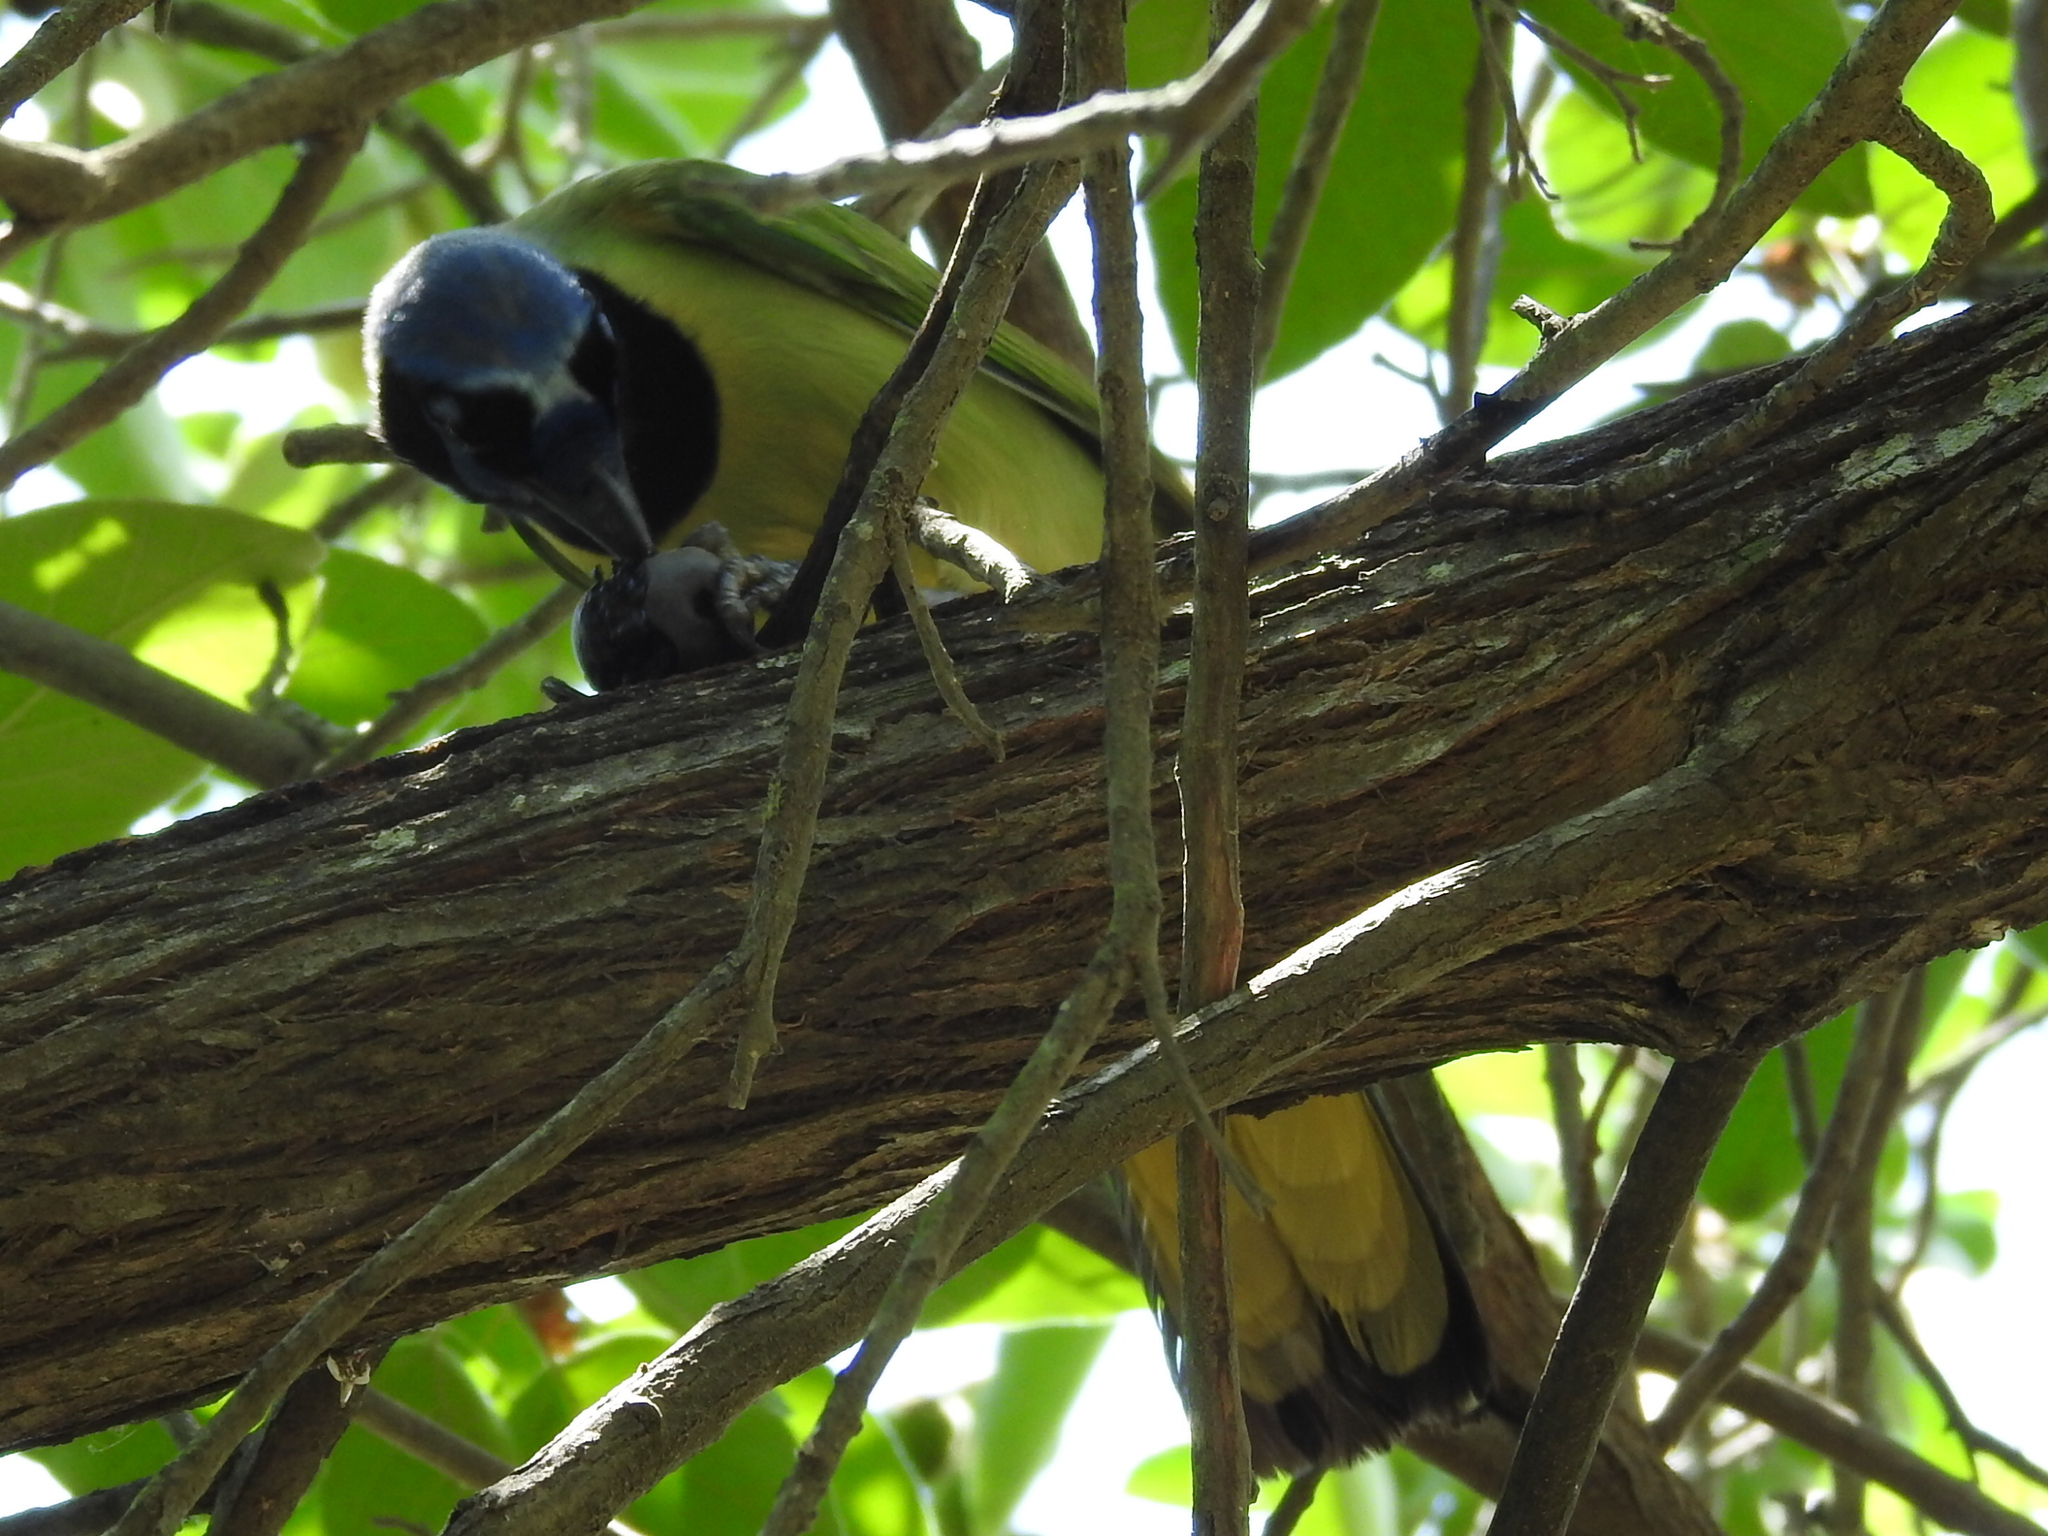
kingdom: Animalia
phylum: Chordata
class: Aves
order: Passeriformes
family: Corvidae
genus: Cyanocorax
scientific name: Cyanocorax yncas
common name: Green jay
